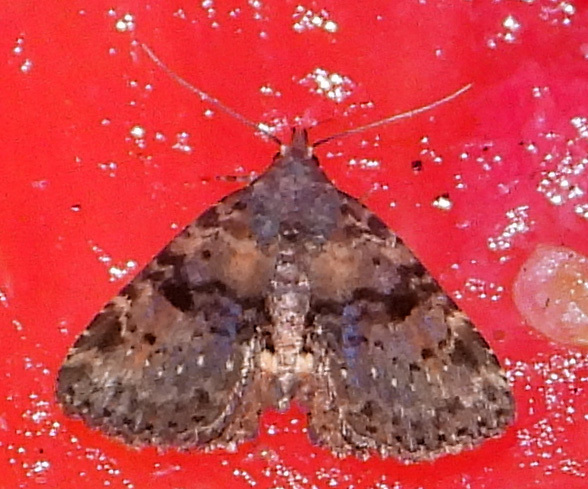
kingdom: Animalia
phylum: Arthropoda
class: Insecta
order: Lepidoptera
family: Erebidae
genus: Metalectra
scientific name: Metalectra quadrisignata
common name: Four-spotted fungus moth
